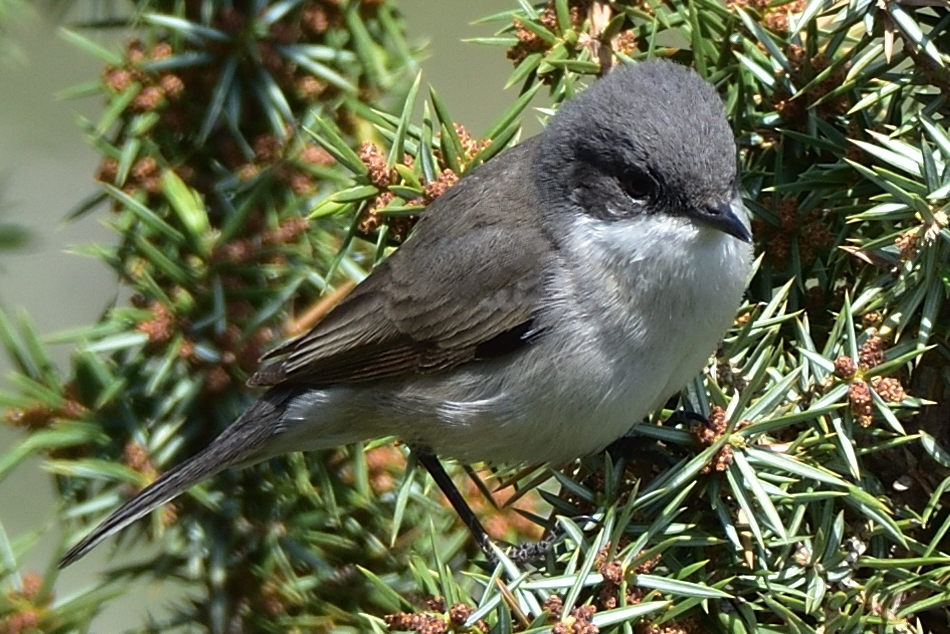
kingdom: Animalia
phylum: Chordata
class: Aves
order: Passeriformes
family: Sylviidae
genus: Sylvia
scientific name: Sylvia curruca
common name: Lesser whitethroat
